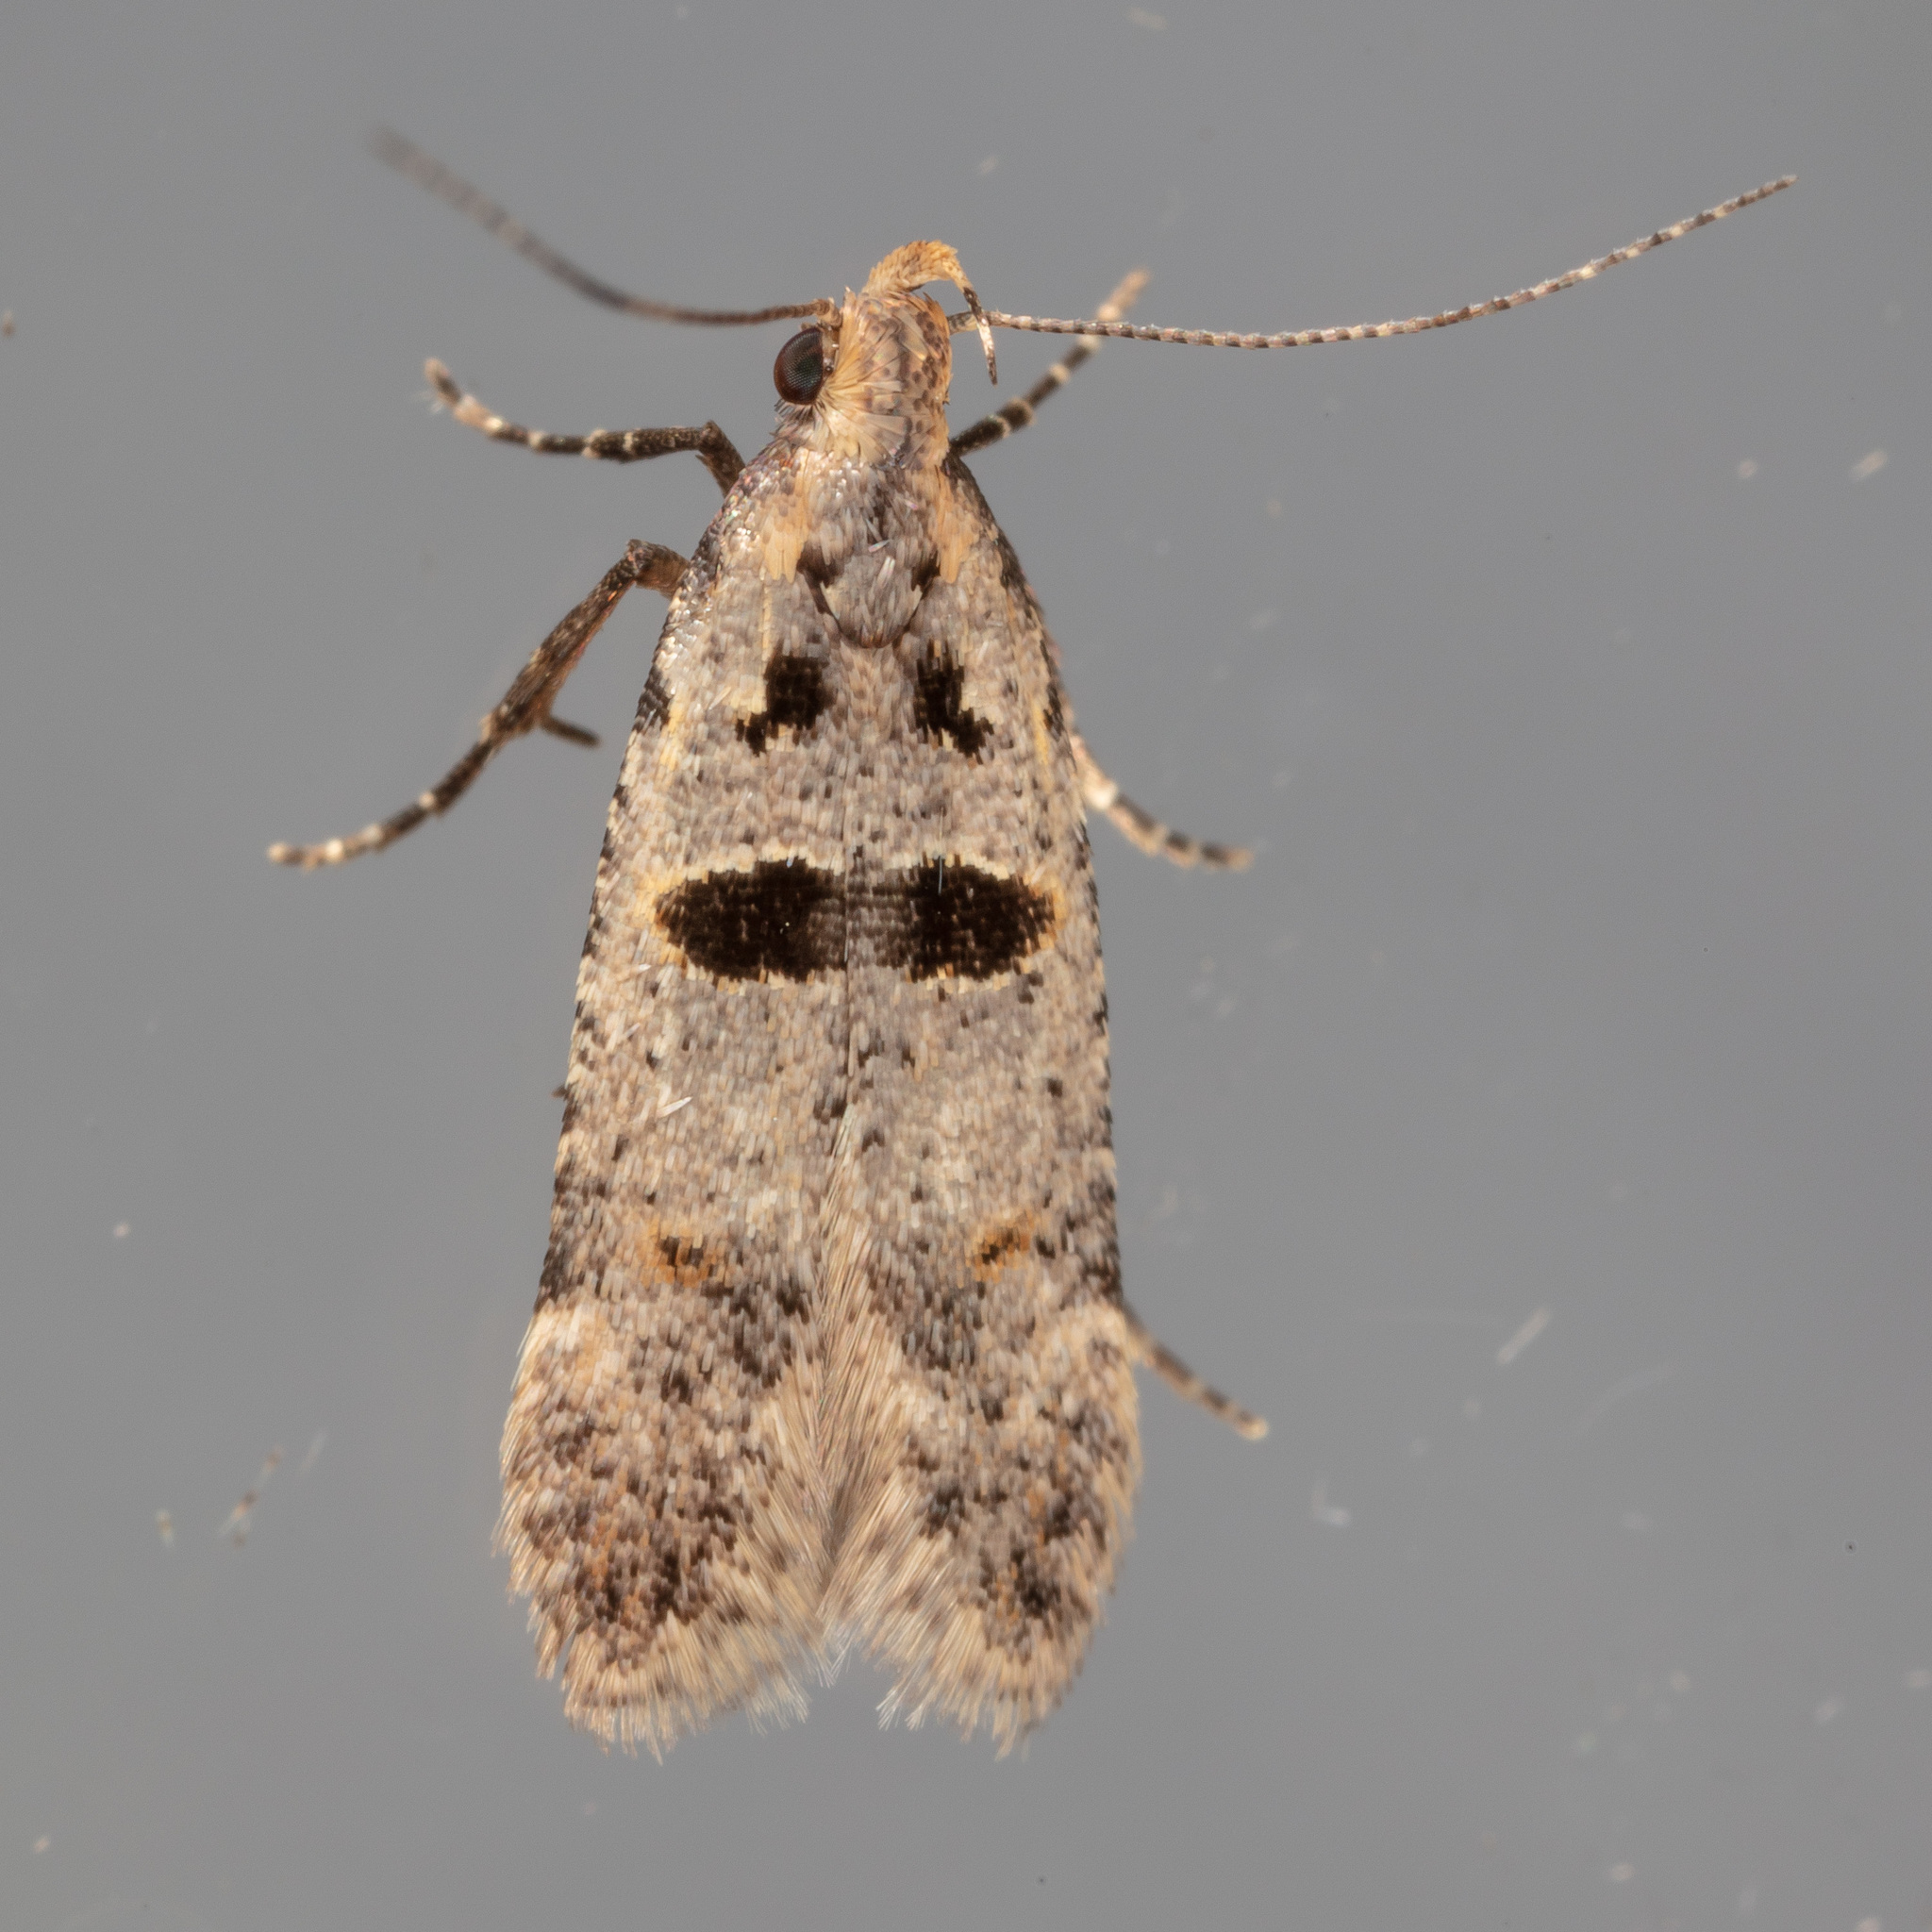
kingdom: Animalia
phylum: Arthropoda
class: Insecta
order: Lepidoptera
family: Gelechiidae
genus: Deltophora
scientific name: Deltophora glandiferella
